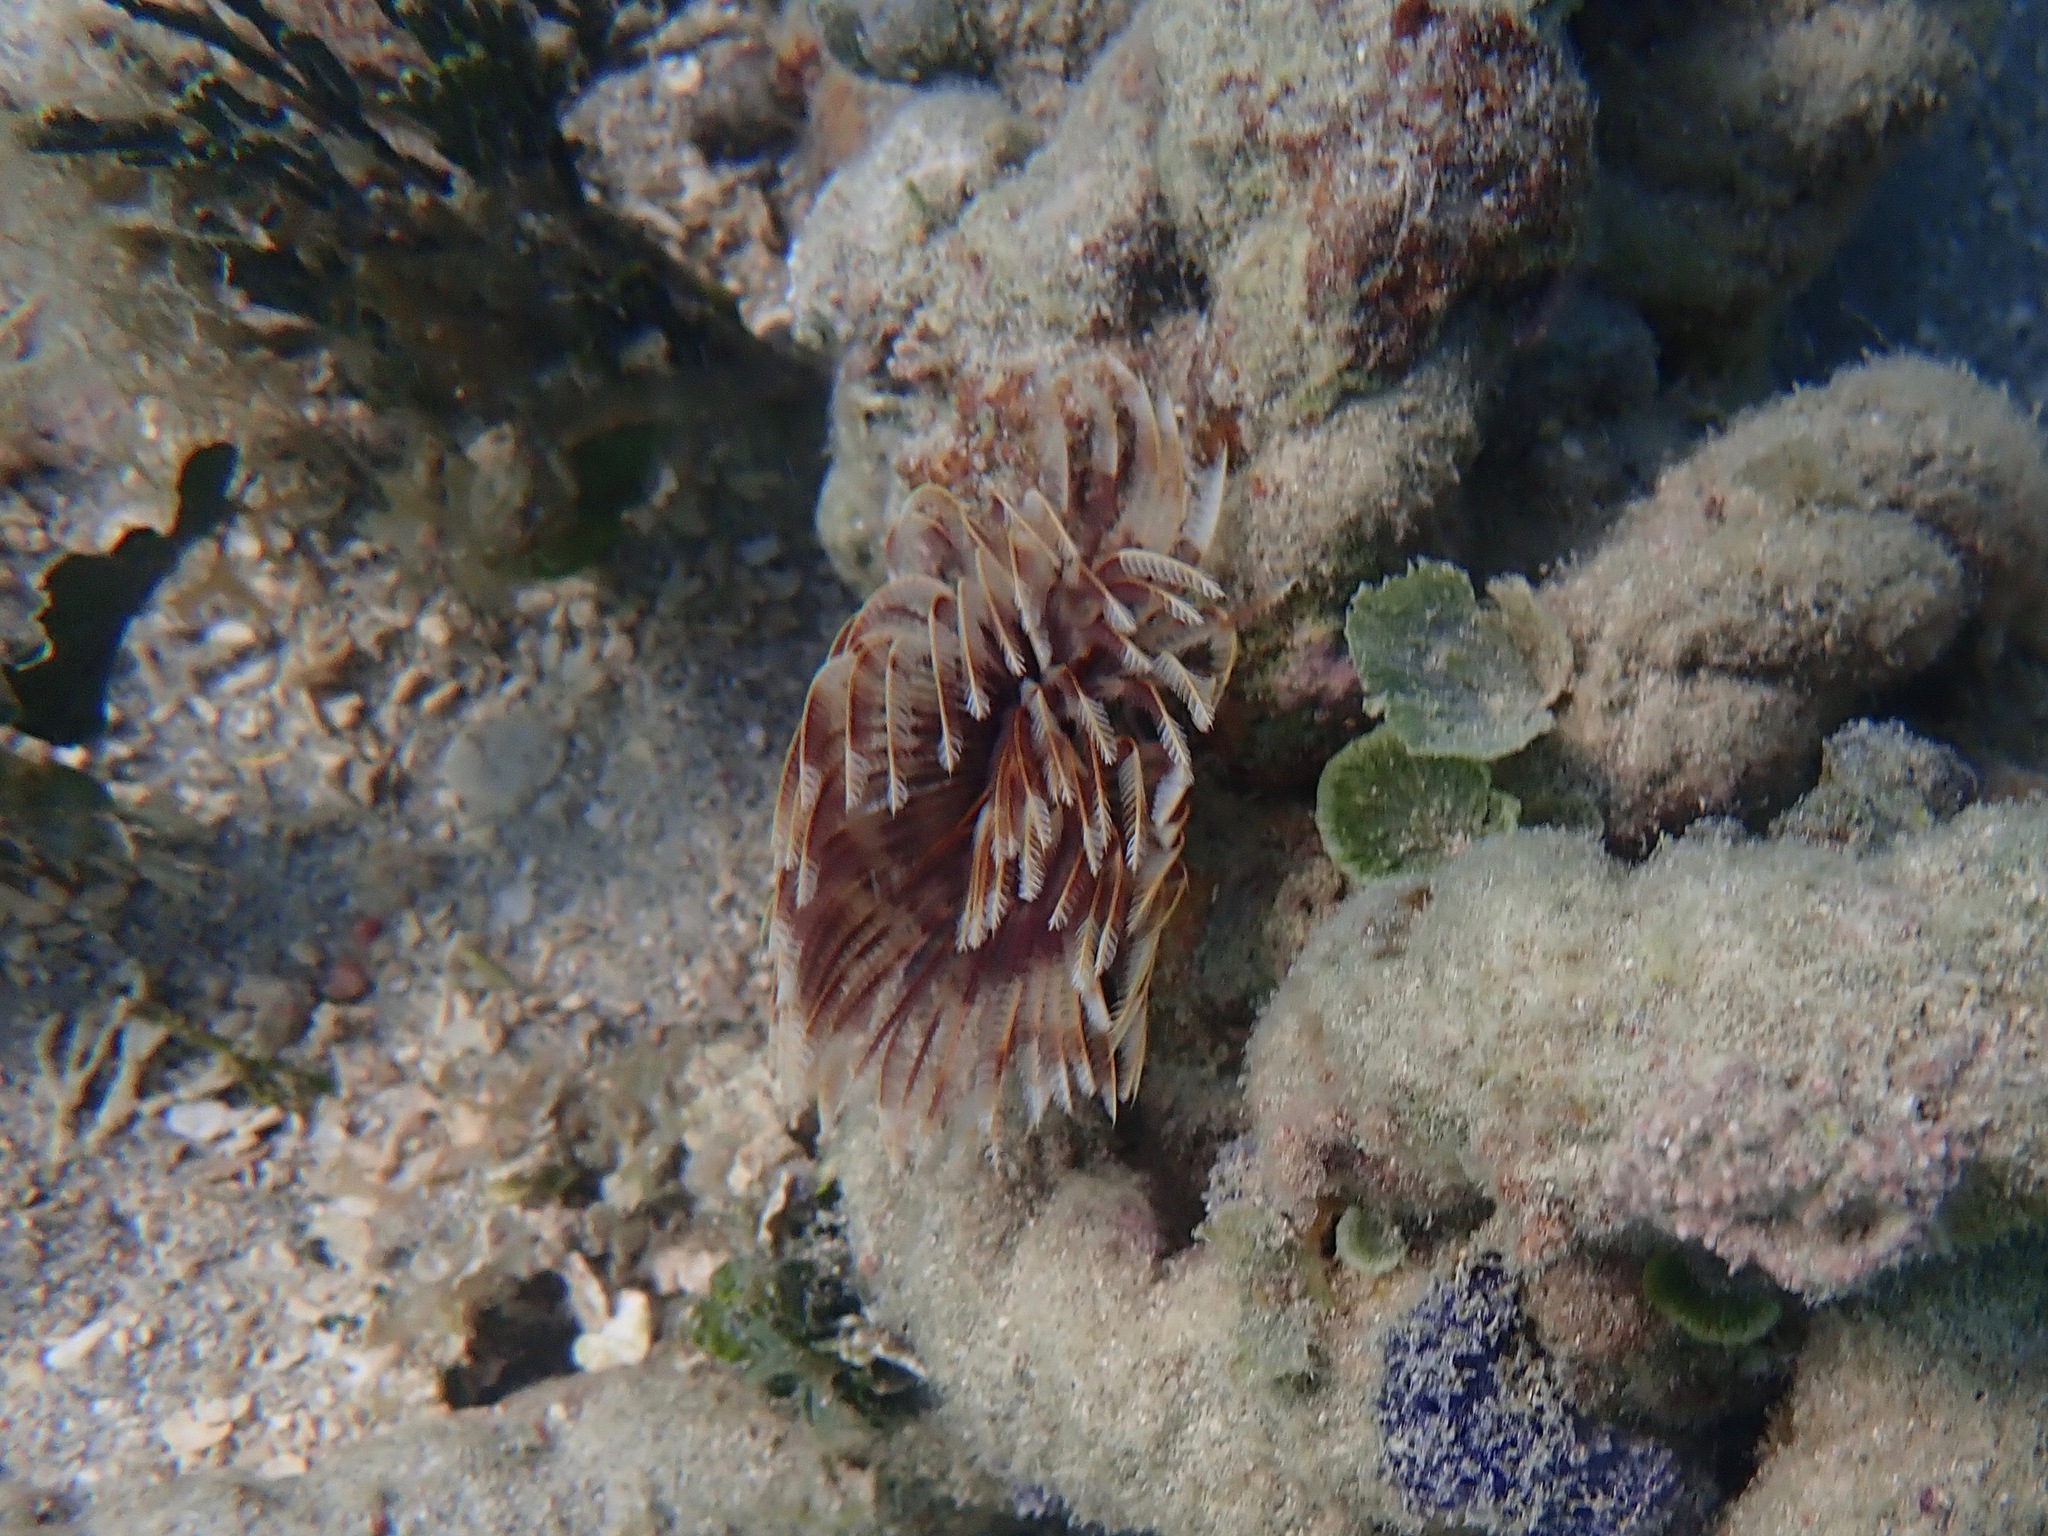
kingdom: Animalia
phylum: Annelida
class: Polychaeta
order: Sabellida
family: Sabellidae
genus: Sabellastarte
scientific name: Sabellastarte magnifica
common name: Giant feather-duster worm
